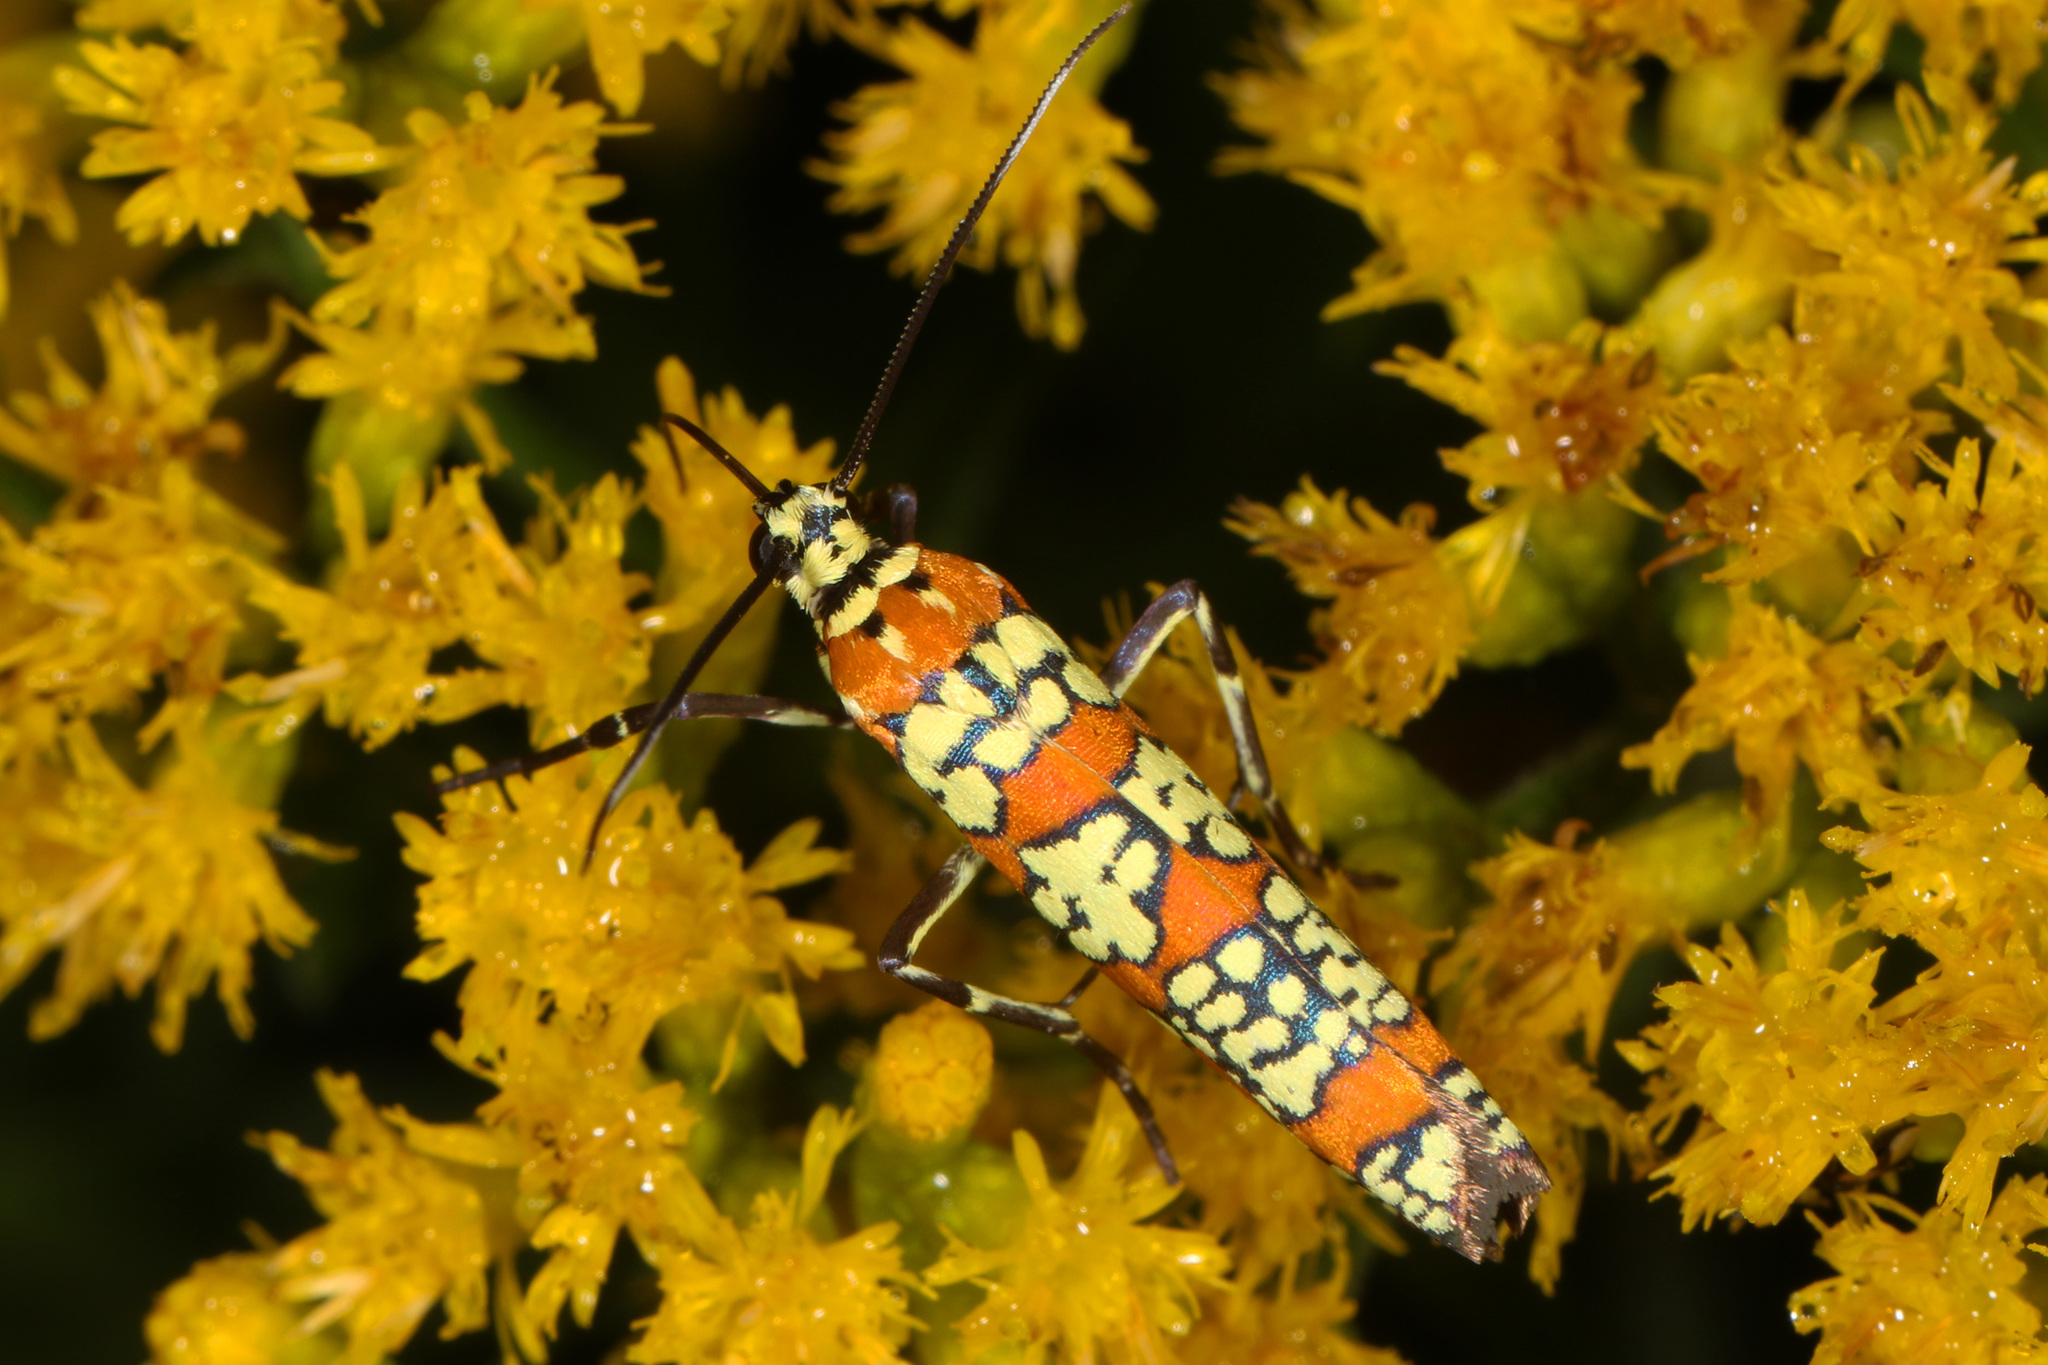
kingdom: Animalia
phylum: Arthropoda
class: Insecta
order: Lepidoptera
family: Attevidae
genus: Atteva
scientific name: Atteva punctella
